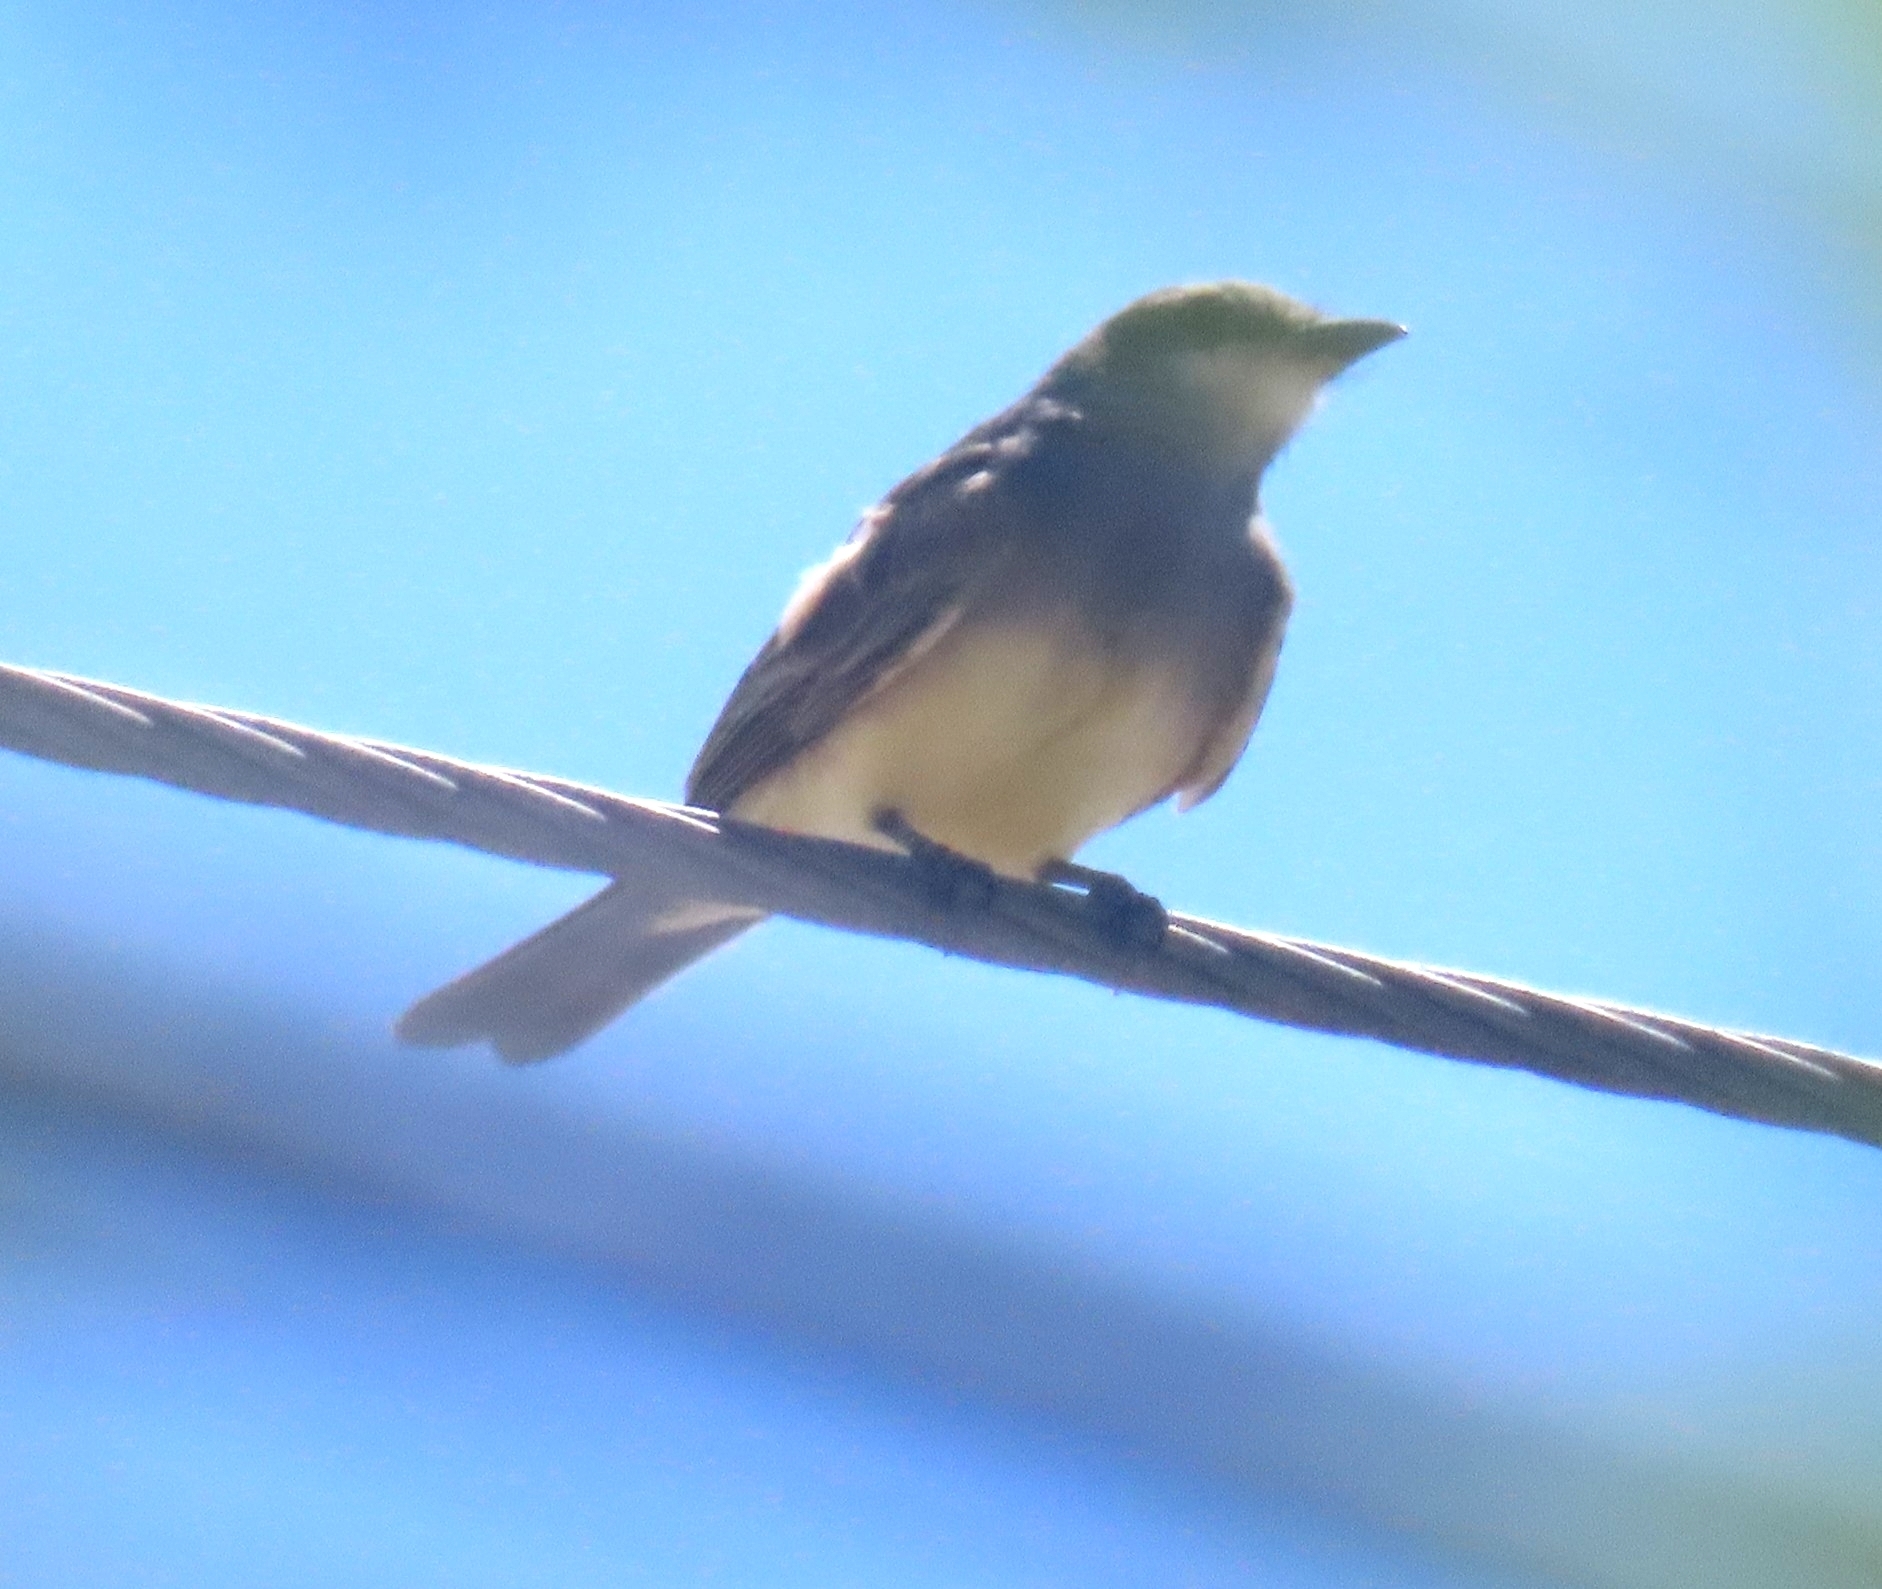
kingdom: Animalia
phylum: Chordata
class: Aves
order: Passeriformes
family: Tyrannidae
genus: Tyrannus
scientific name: Tyrannus vociferans
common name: Cassin's kingbird
